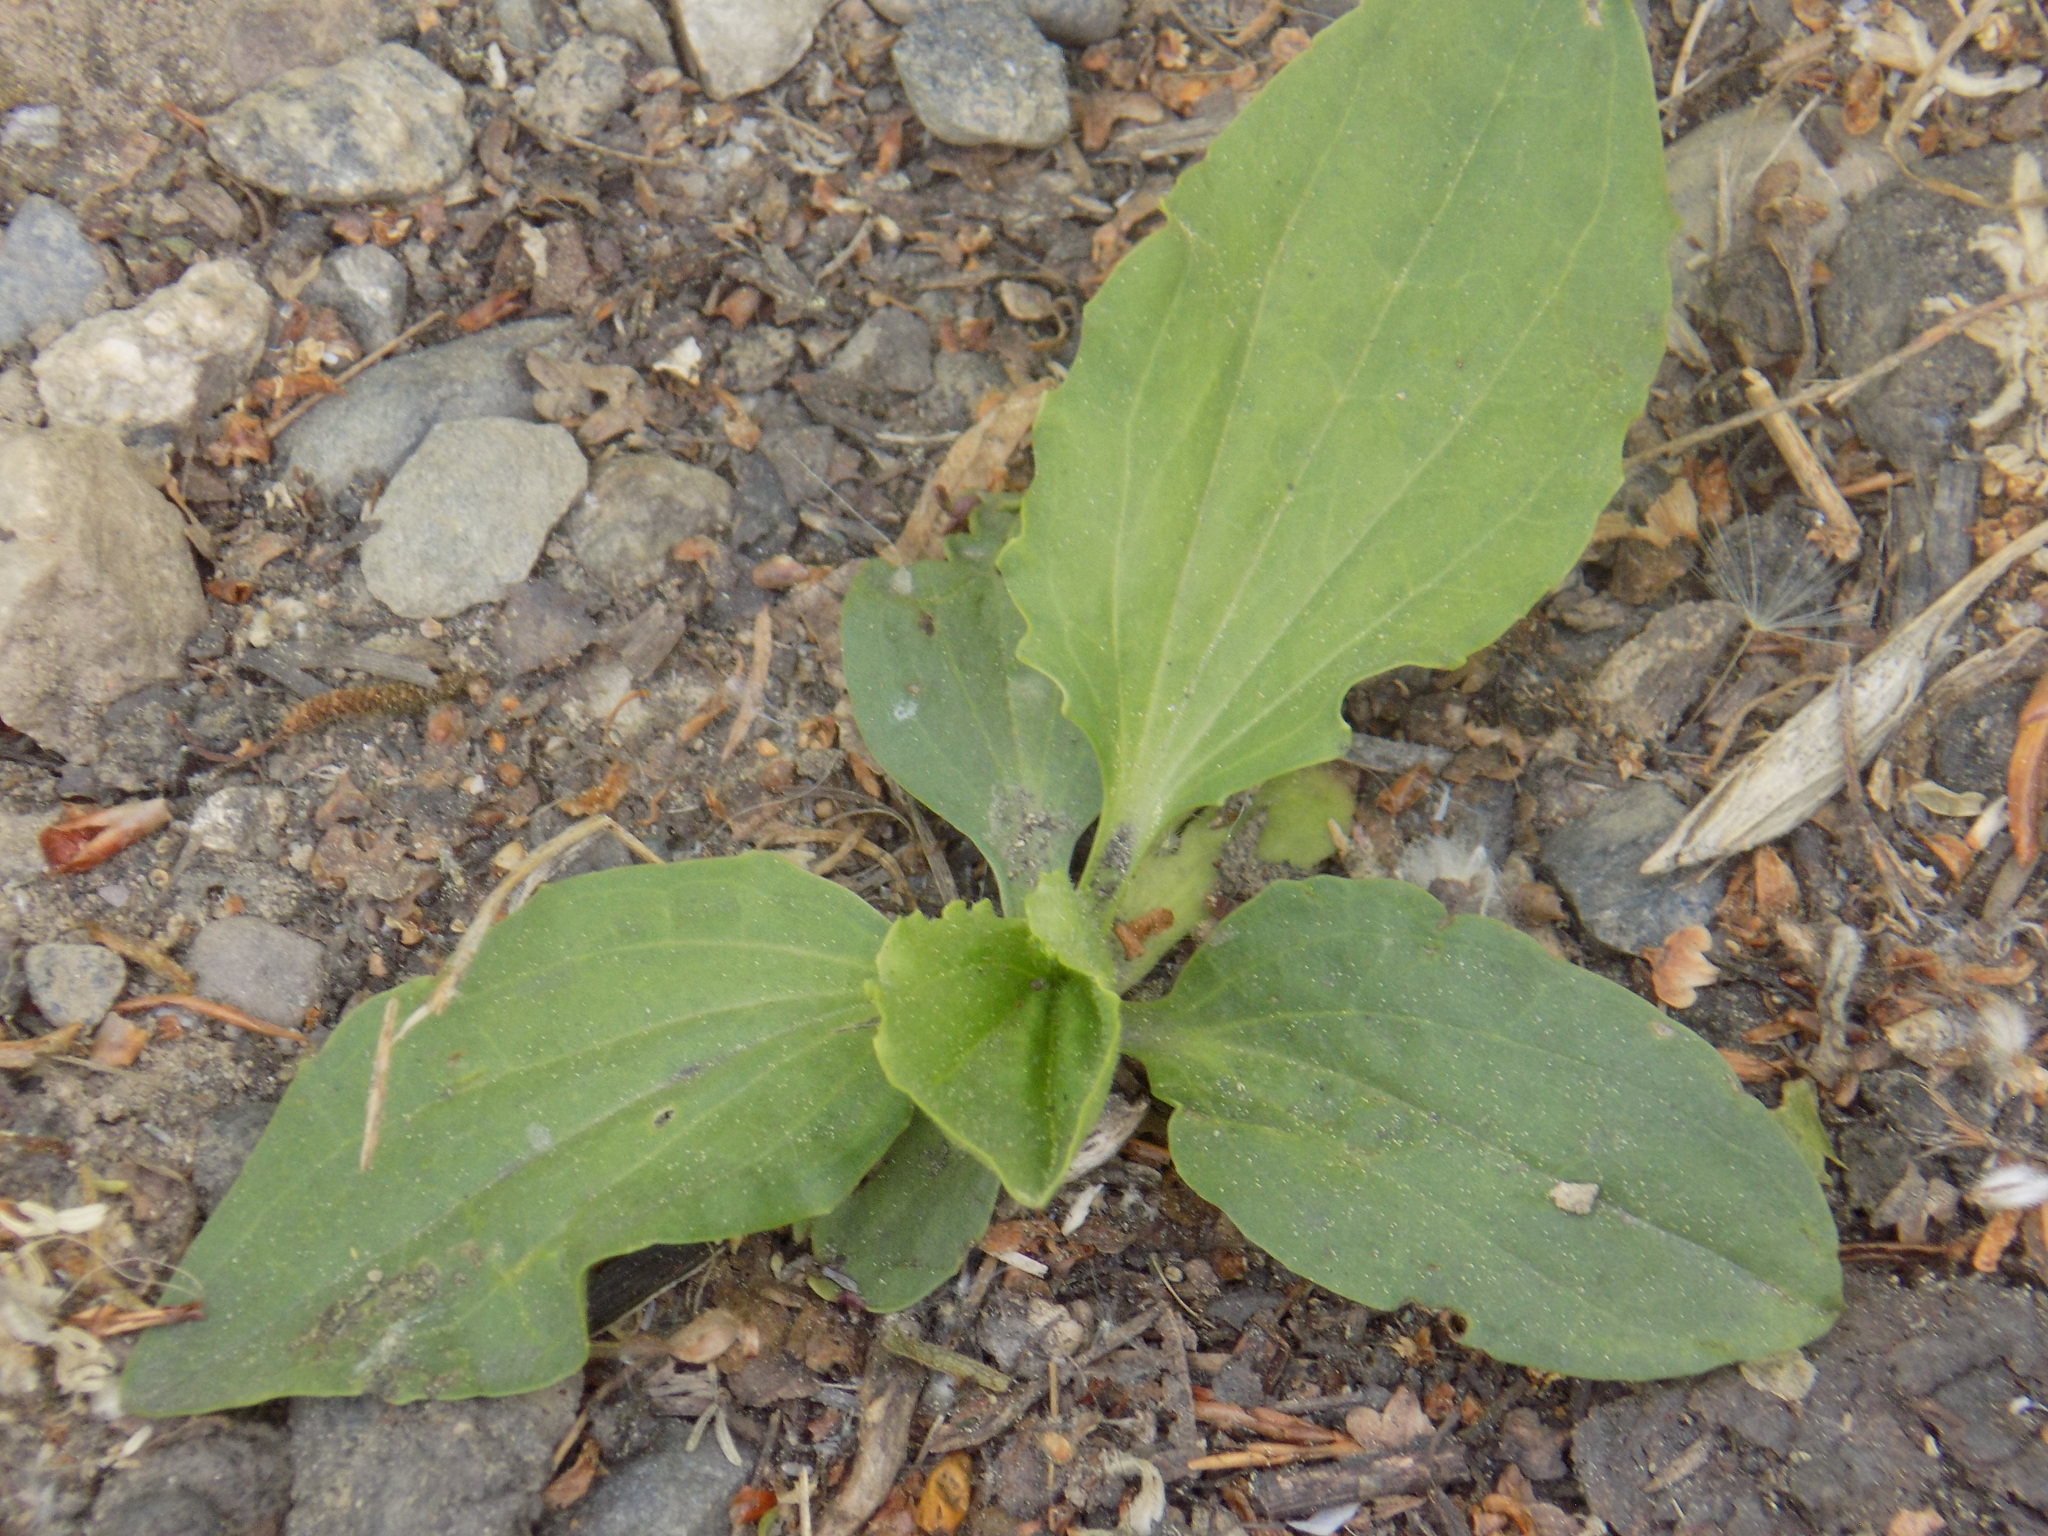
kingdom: Plantae
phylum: Tracheophyta
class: Magnoliopsida
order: Lamiales
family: Plantaginaceae
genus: Plantago
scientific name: Plantago major
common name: Common plantain
